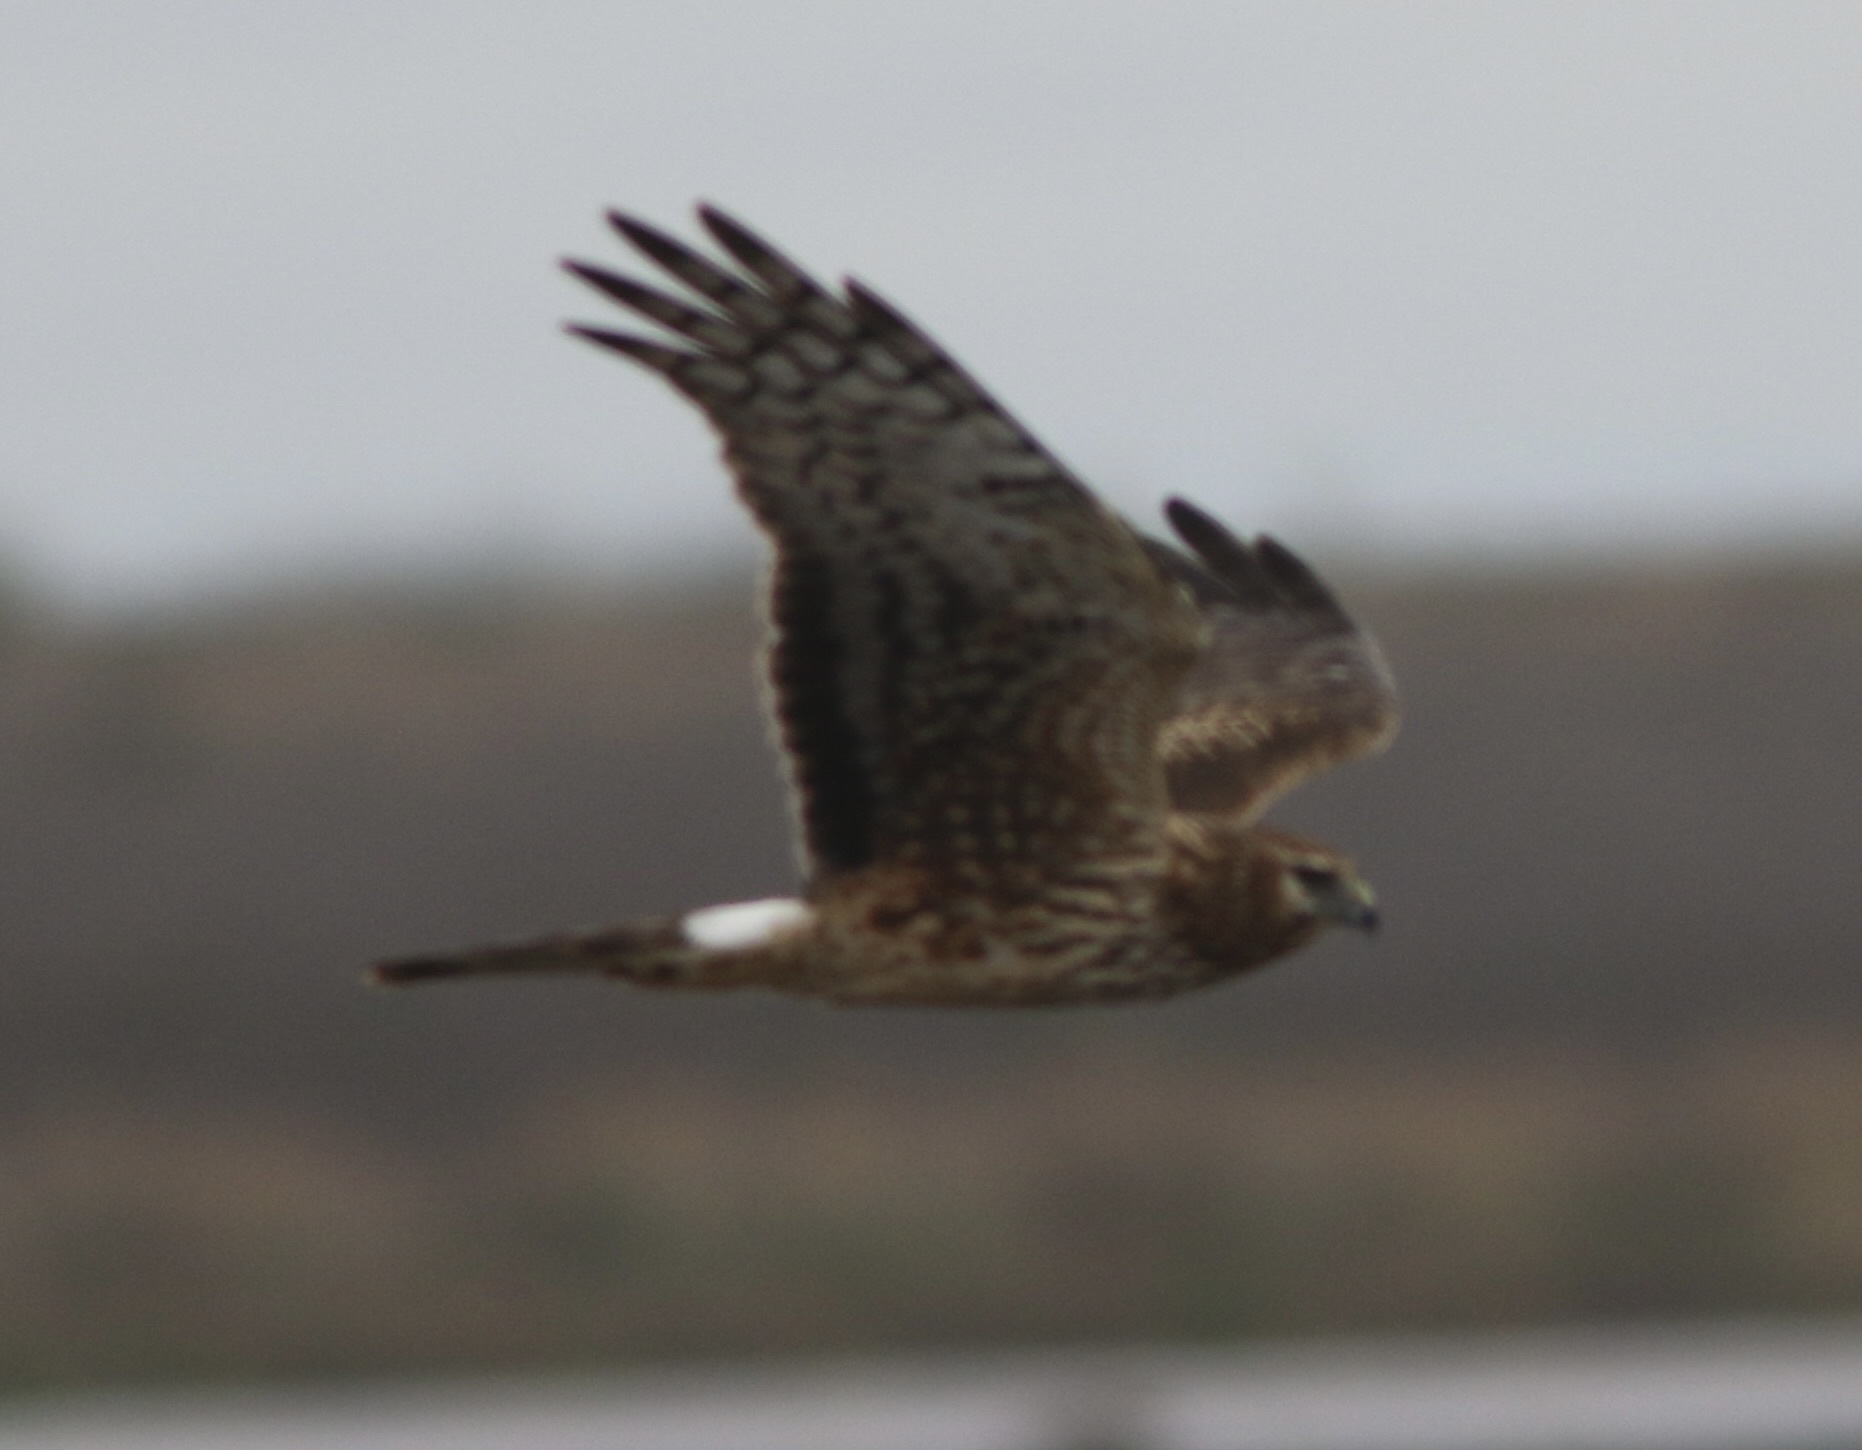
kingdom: Animalia
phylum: Chordata
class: Aves
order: Accipitriformes
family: Accipitridae
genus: Circus
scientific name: Circus cyaneus
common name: Hen harrier
